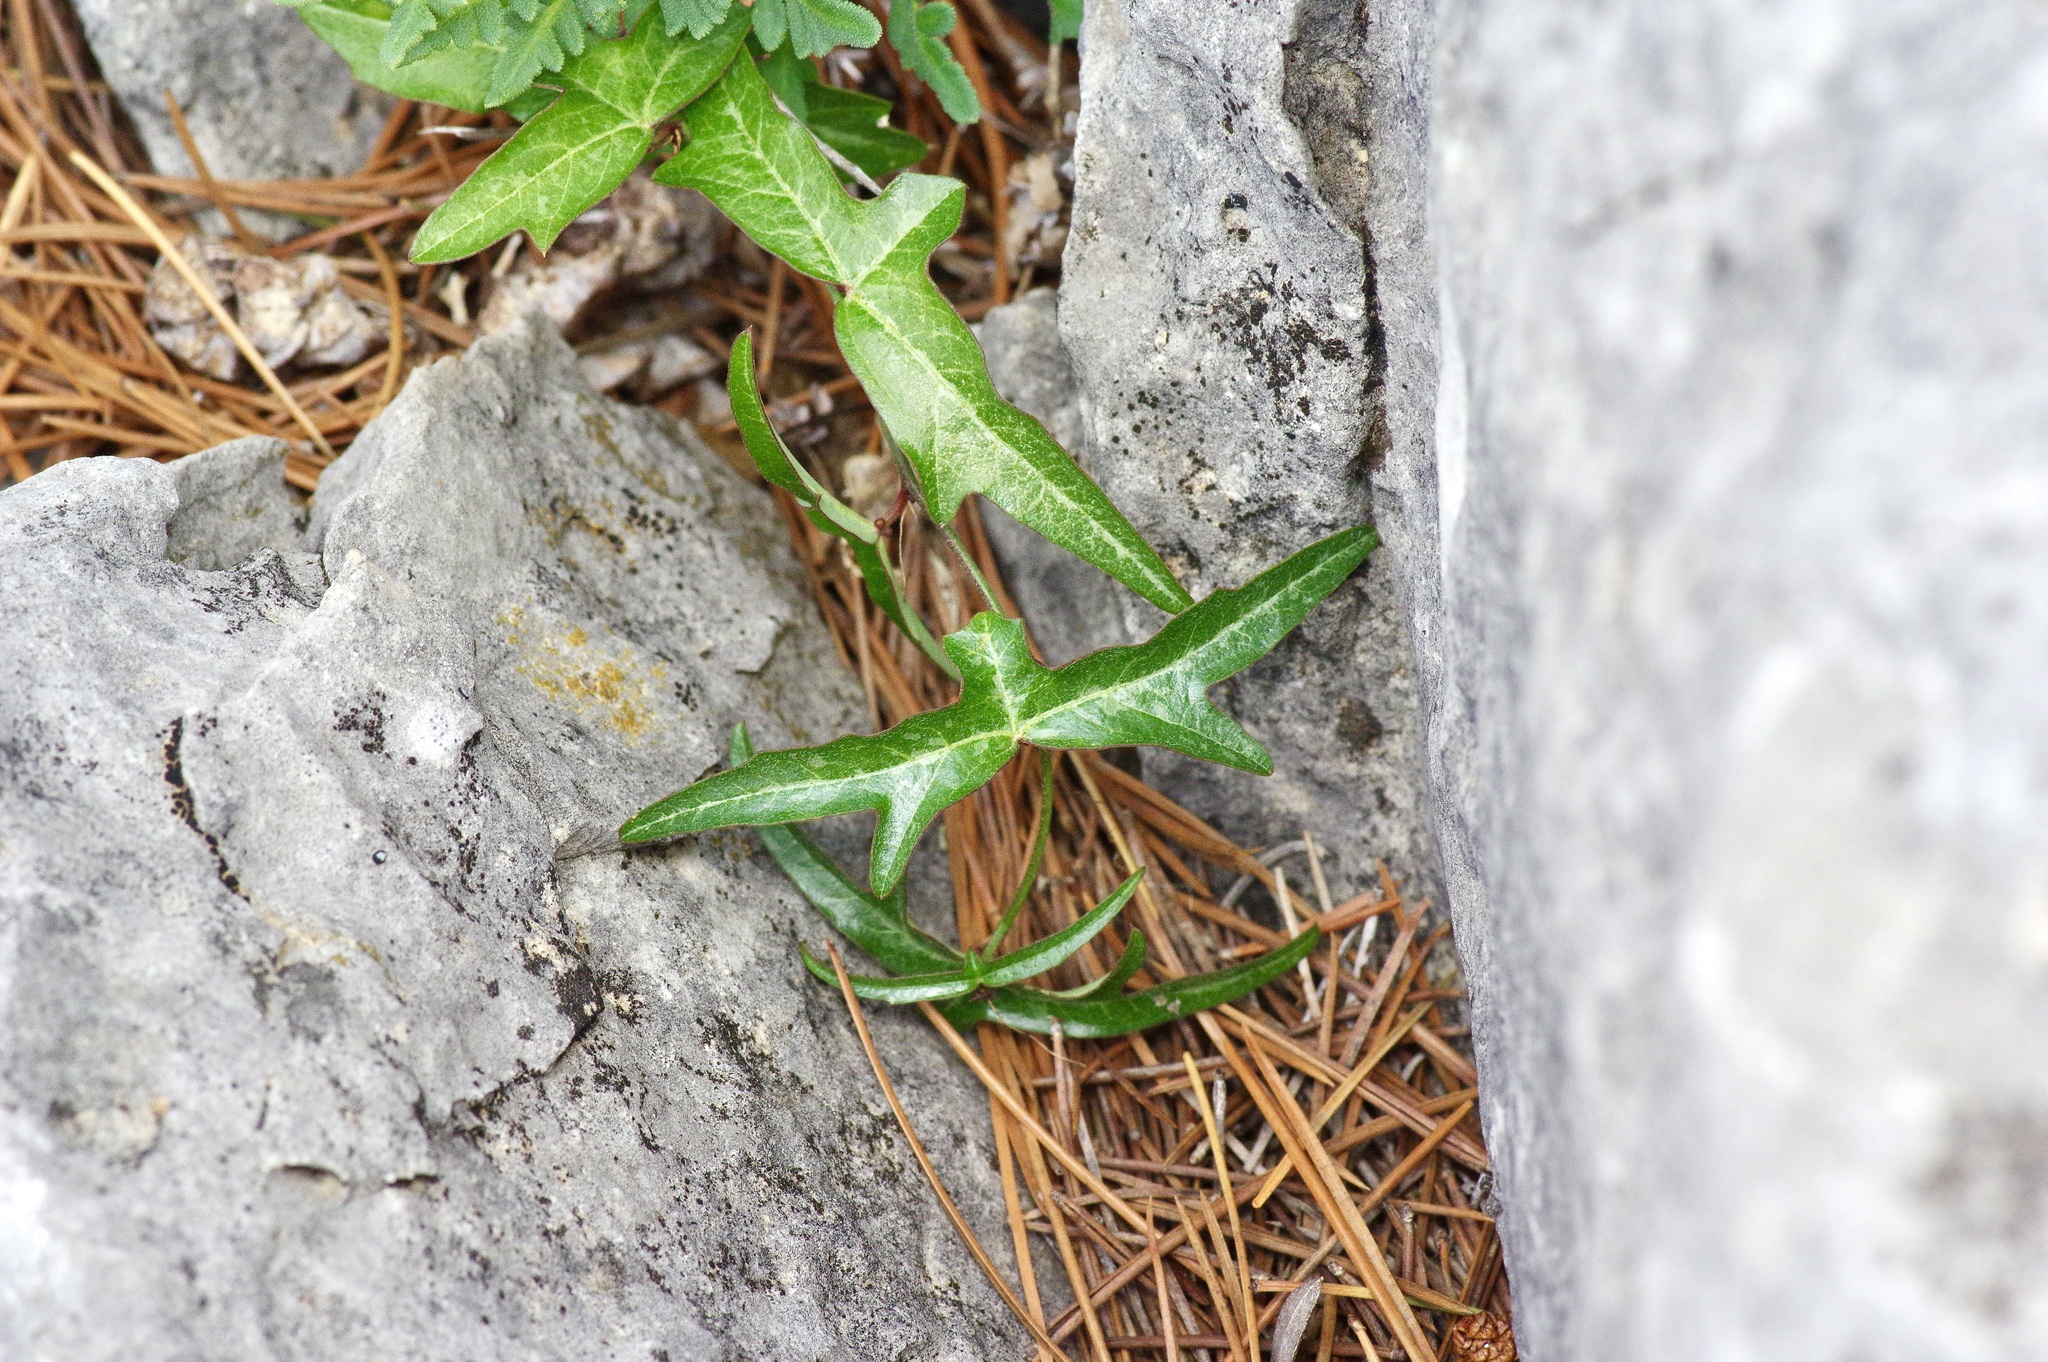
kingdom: Plantae
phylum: Tracheophyta
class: Magnoliopsida
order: Malpighiales
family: Passifloraceae
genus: Passiflora
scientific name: Passiflora tenuiloba
